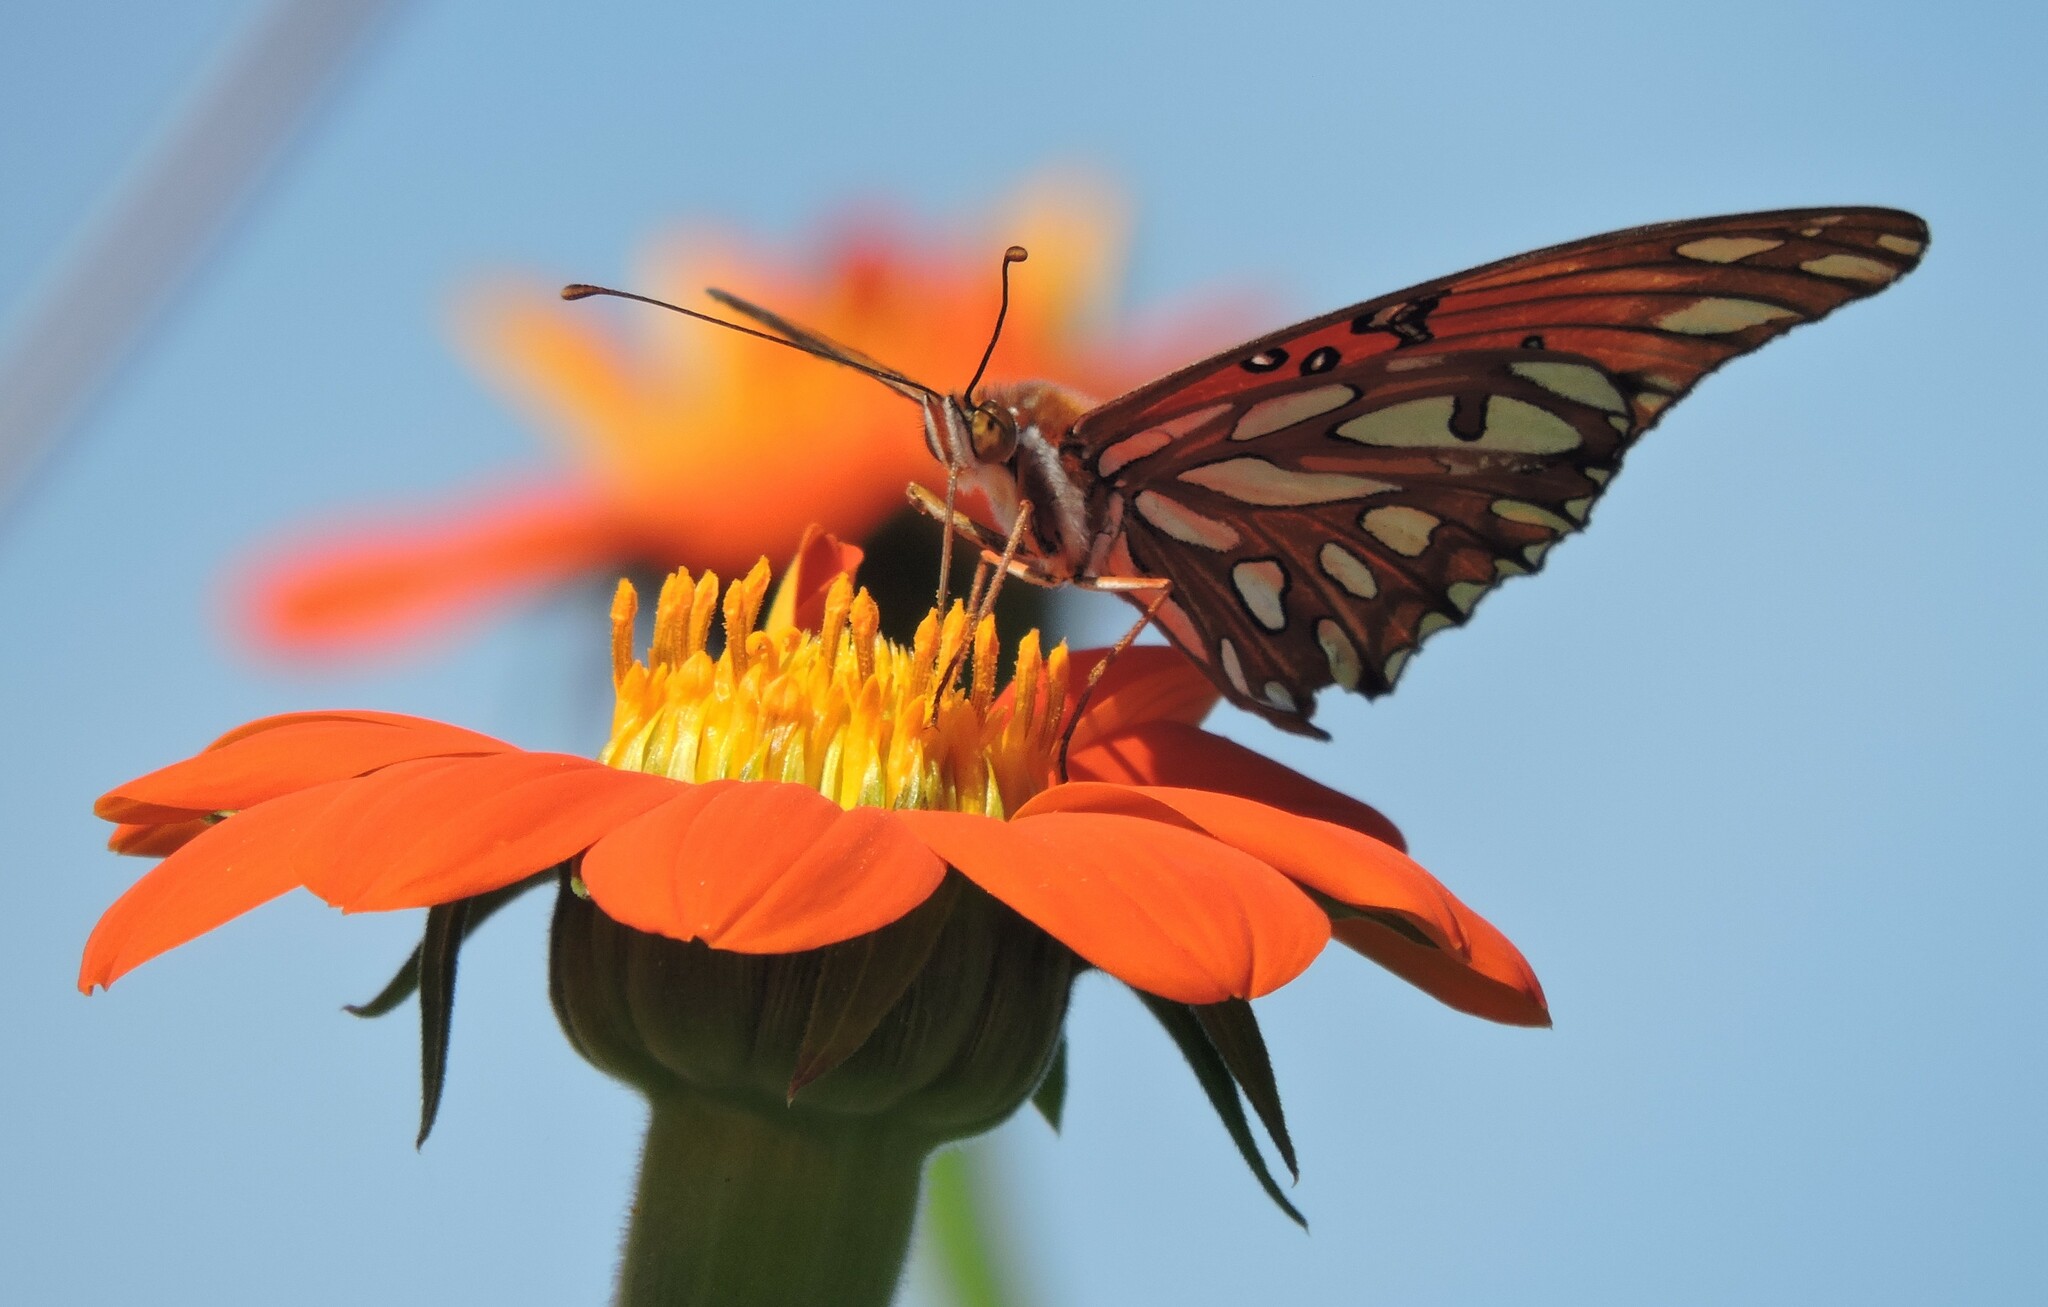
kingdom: Animalia
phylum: Arthropoda
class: Insecta
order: Lepidoptera
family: Nymphalidae
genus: Dione
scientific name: Dione vanillae
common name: Gulf fritillary
